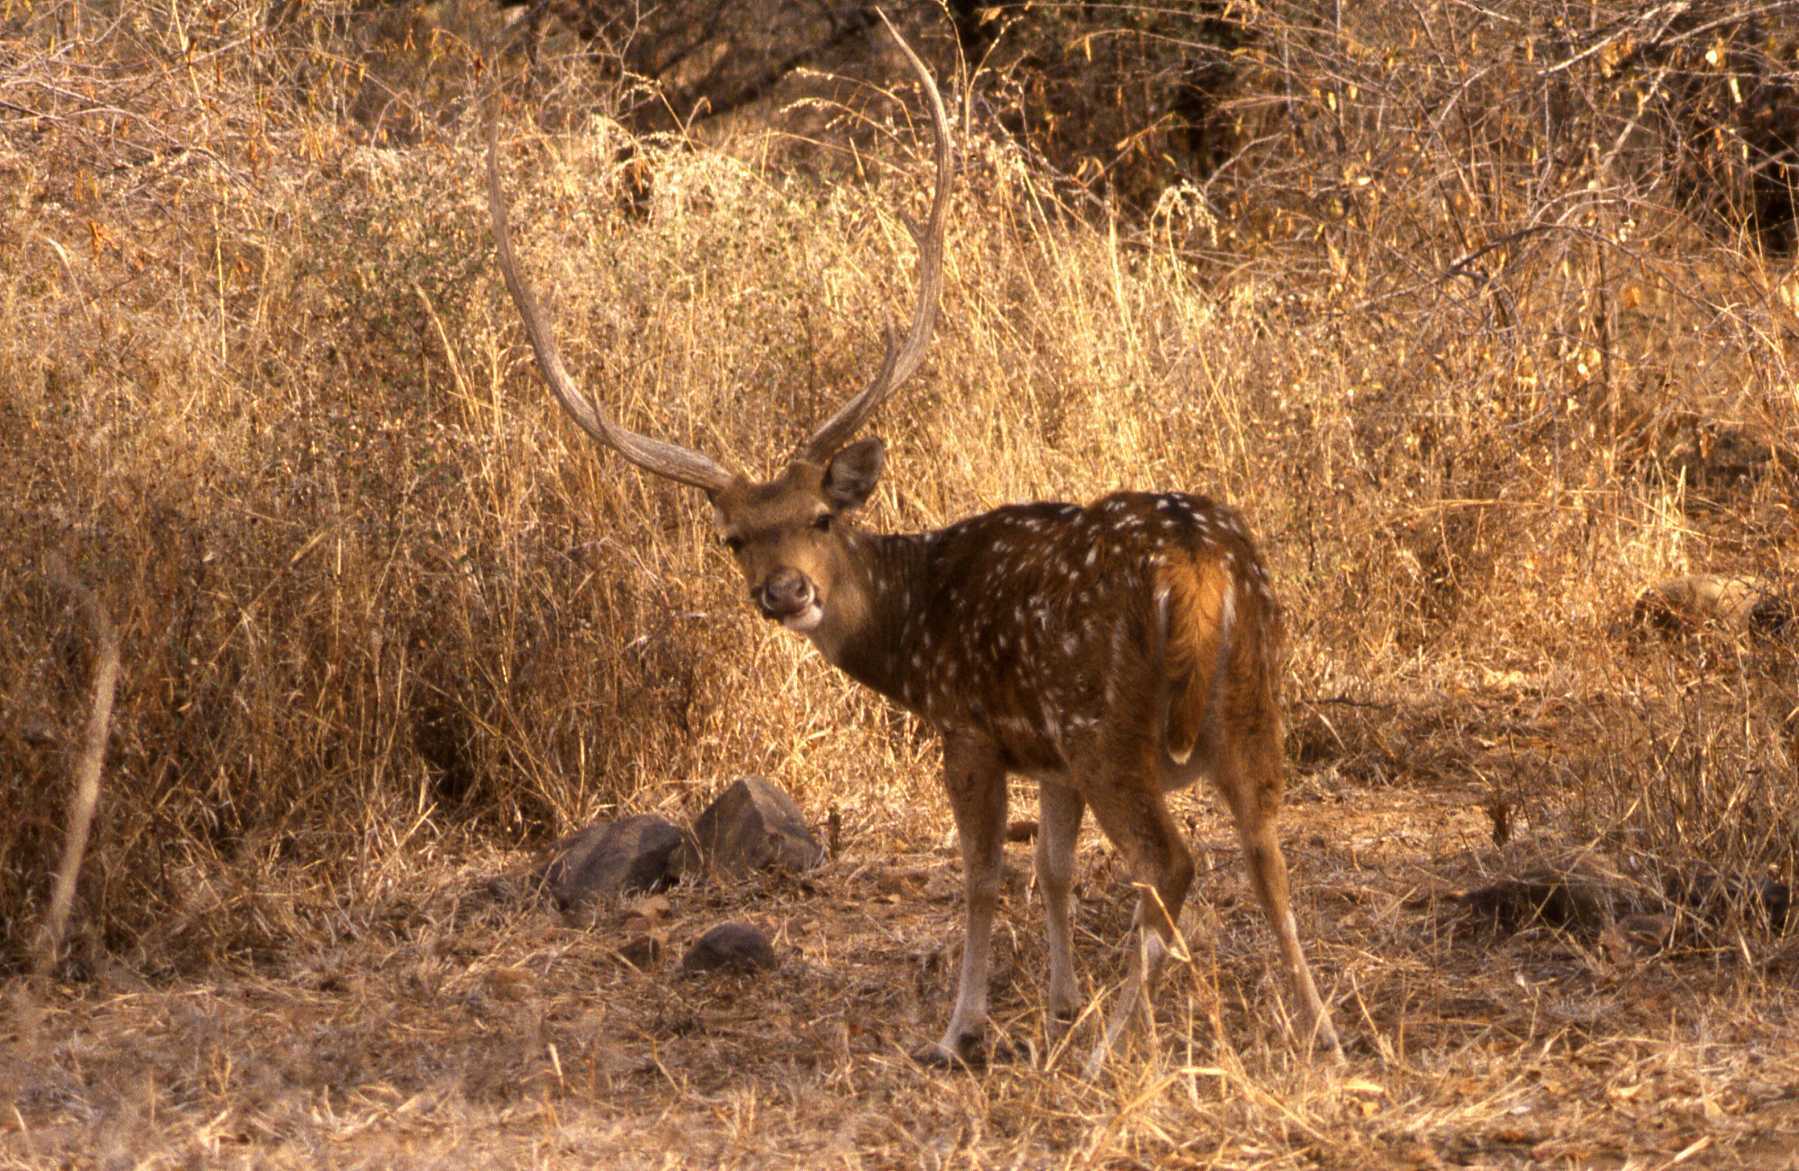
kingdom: Animalia
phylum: Chordata
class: Mammalia
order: Artiodactyla
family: Cervidae
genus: Axis
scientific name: Axis axis
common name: Chital
